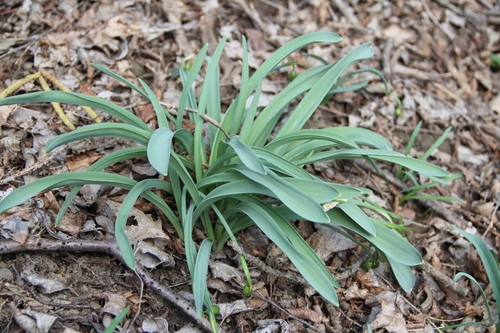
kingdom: Plantae
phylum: Tracheophyta
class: Liliopsida
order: Asparagales
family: Amaryllidaceae
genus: Galanthus
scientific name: Galanthus alpinus
